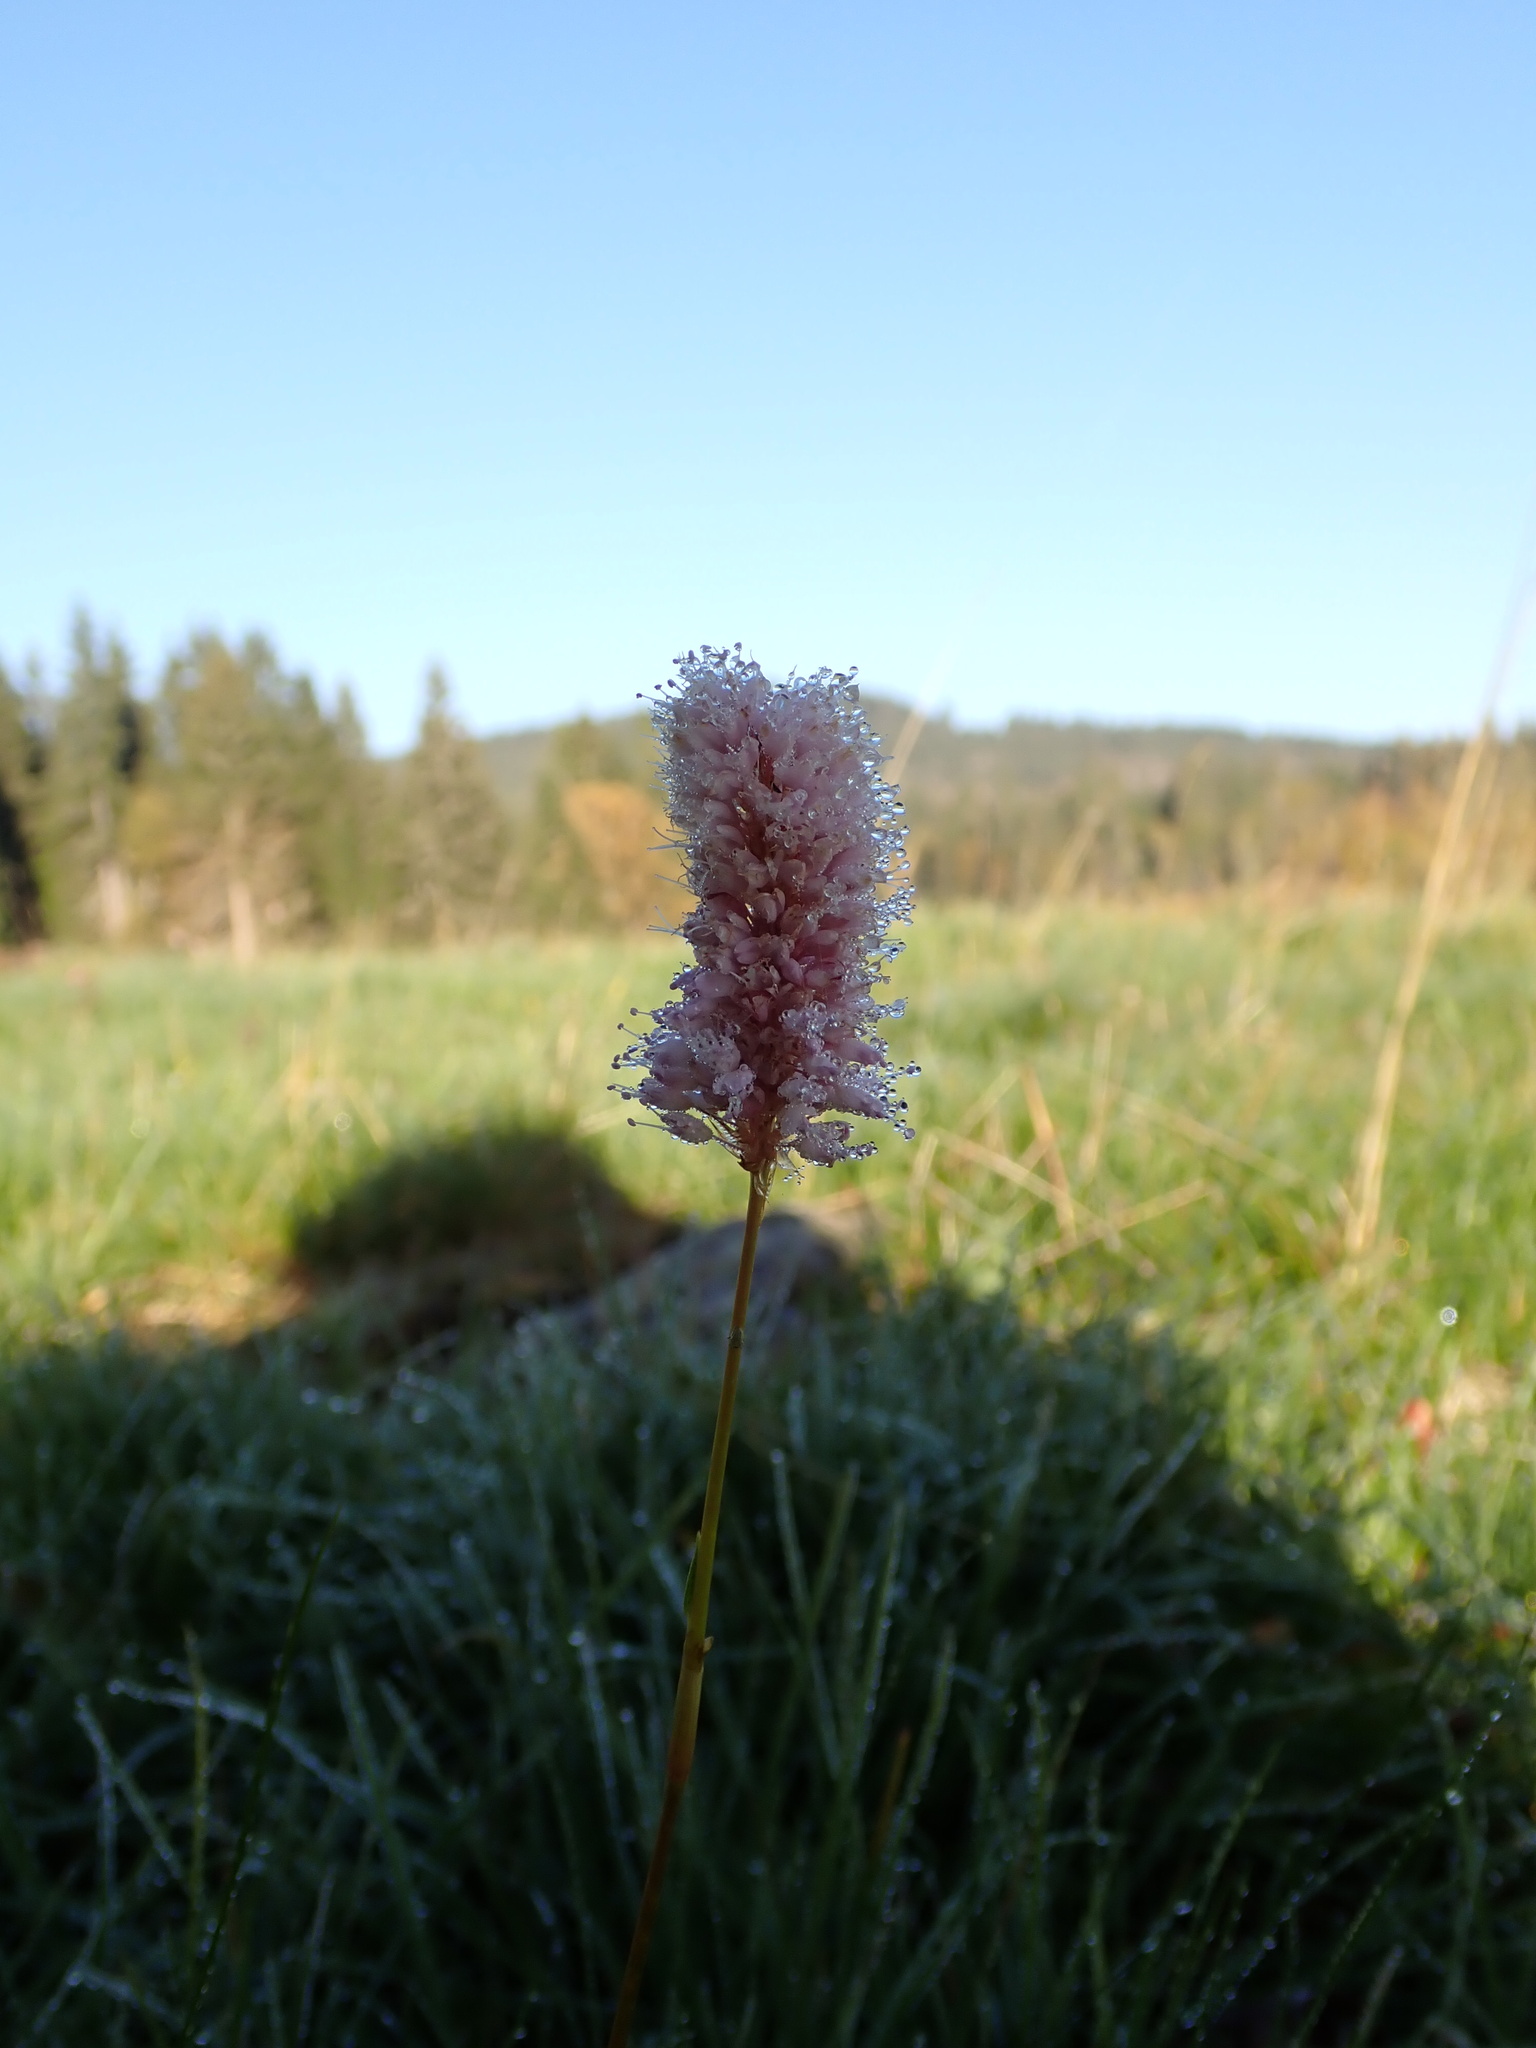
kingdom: Plantae
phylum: Tracheophyta
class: Magnoliopsida
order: Caryophyllales
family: Polygonaceae
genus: Bistorta
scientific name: Bistorta officinalis
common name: Common bistort
